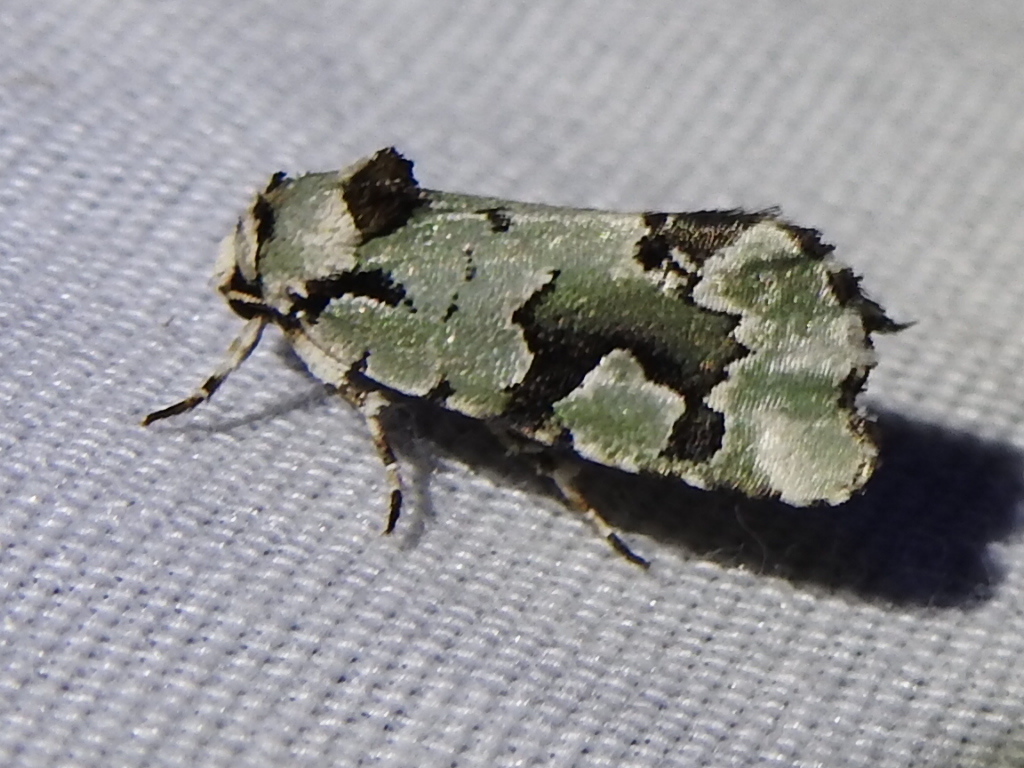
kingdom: Animalia
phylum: Arthropoda
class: Insecta
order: Lepidoptera
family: Noctuidae
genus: Emarginea
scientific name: Emarginea percara
